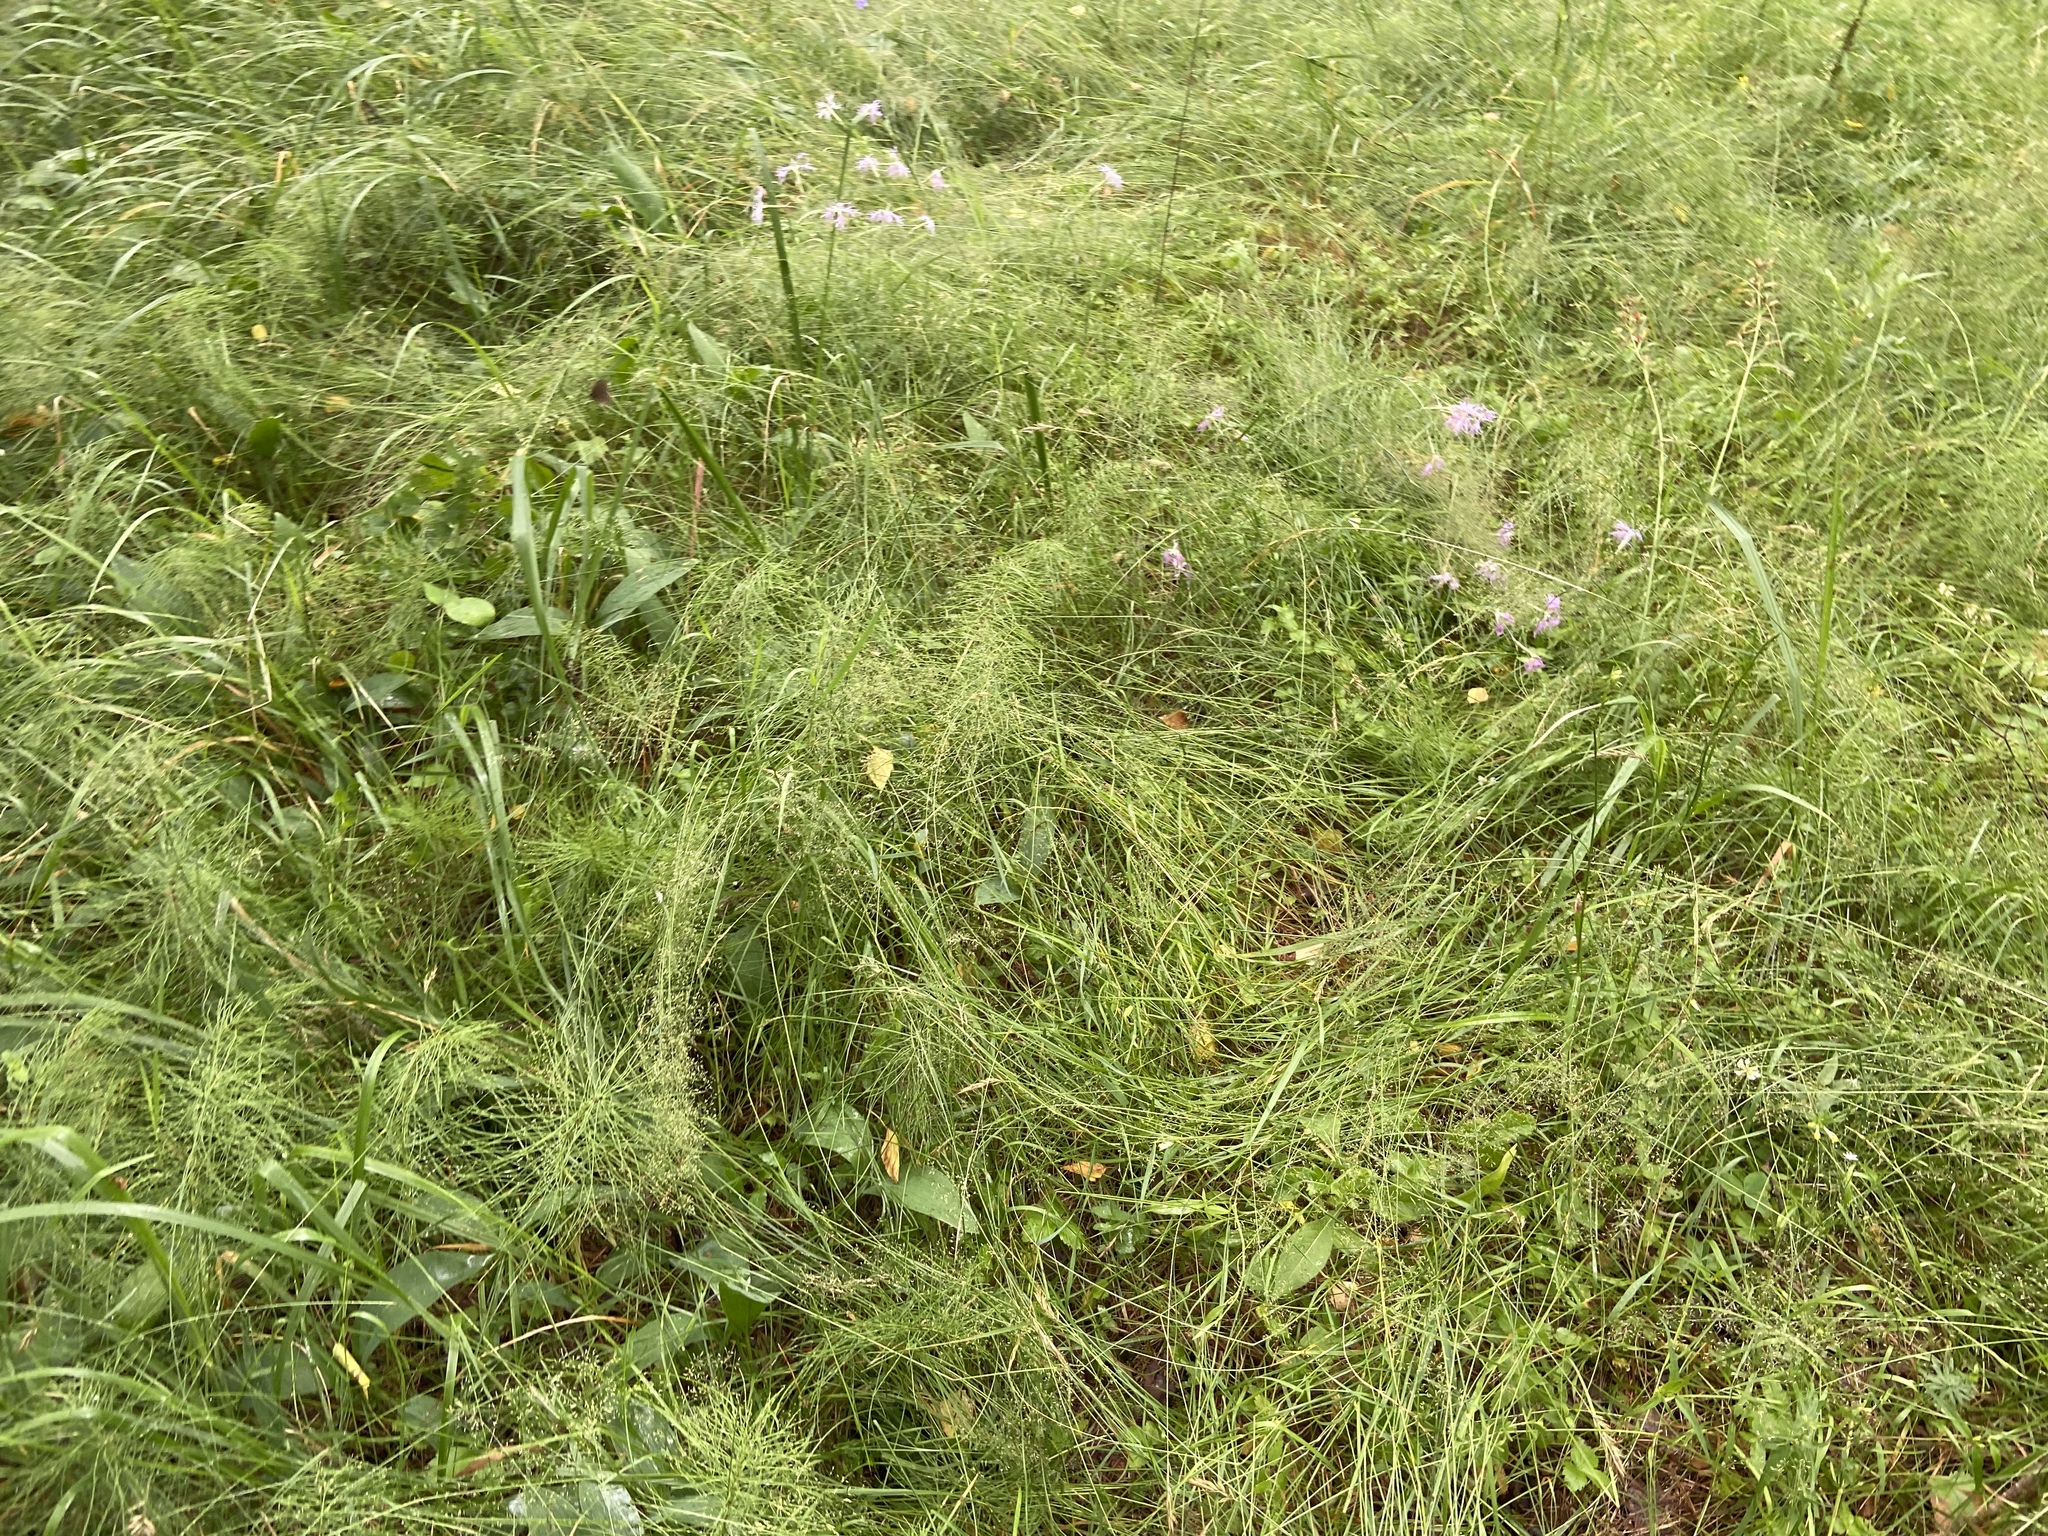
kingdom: Plantae
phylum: Tracheophyta
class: Magnoliopsida
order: Caryophyllales
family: Caryophyllaceae
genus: Dianthus
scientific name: Dianthus superbus
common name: Fringed pink
